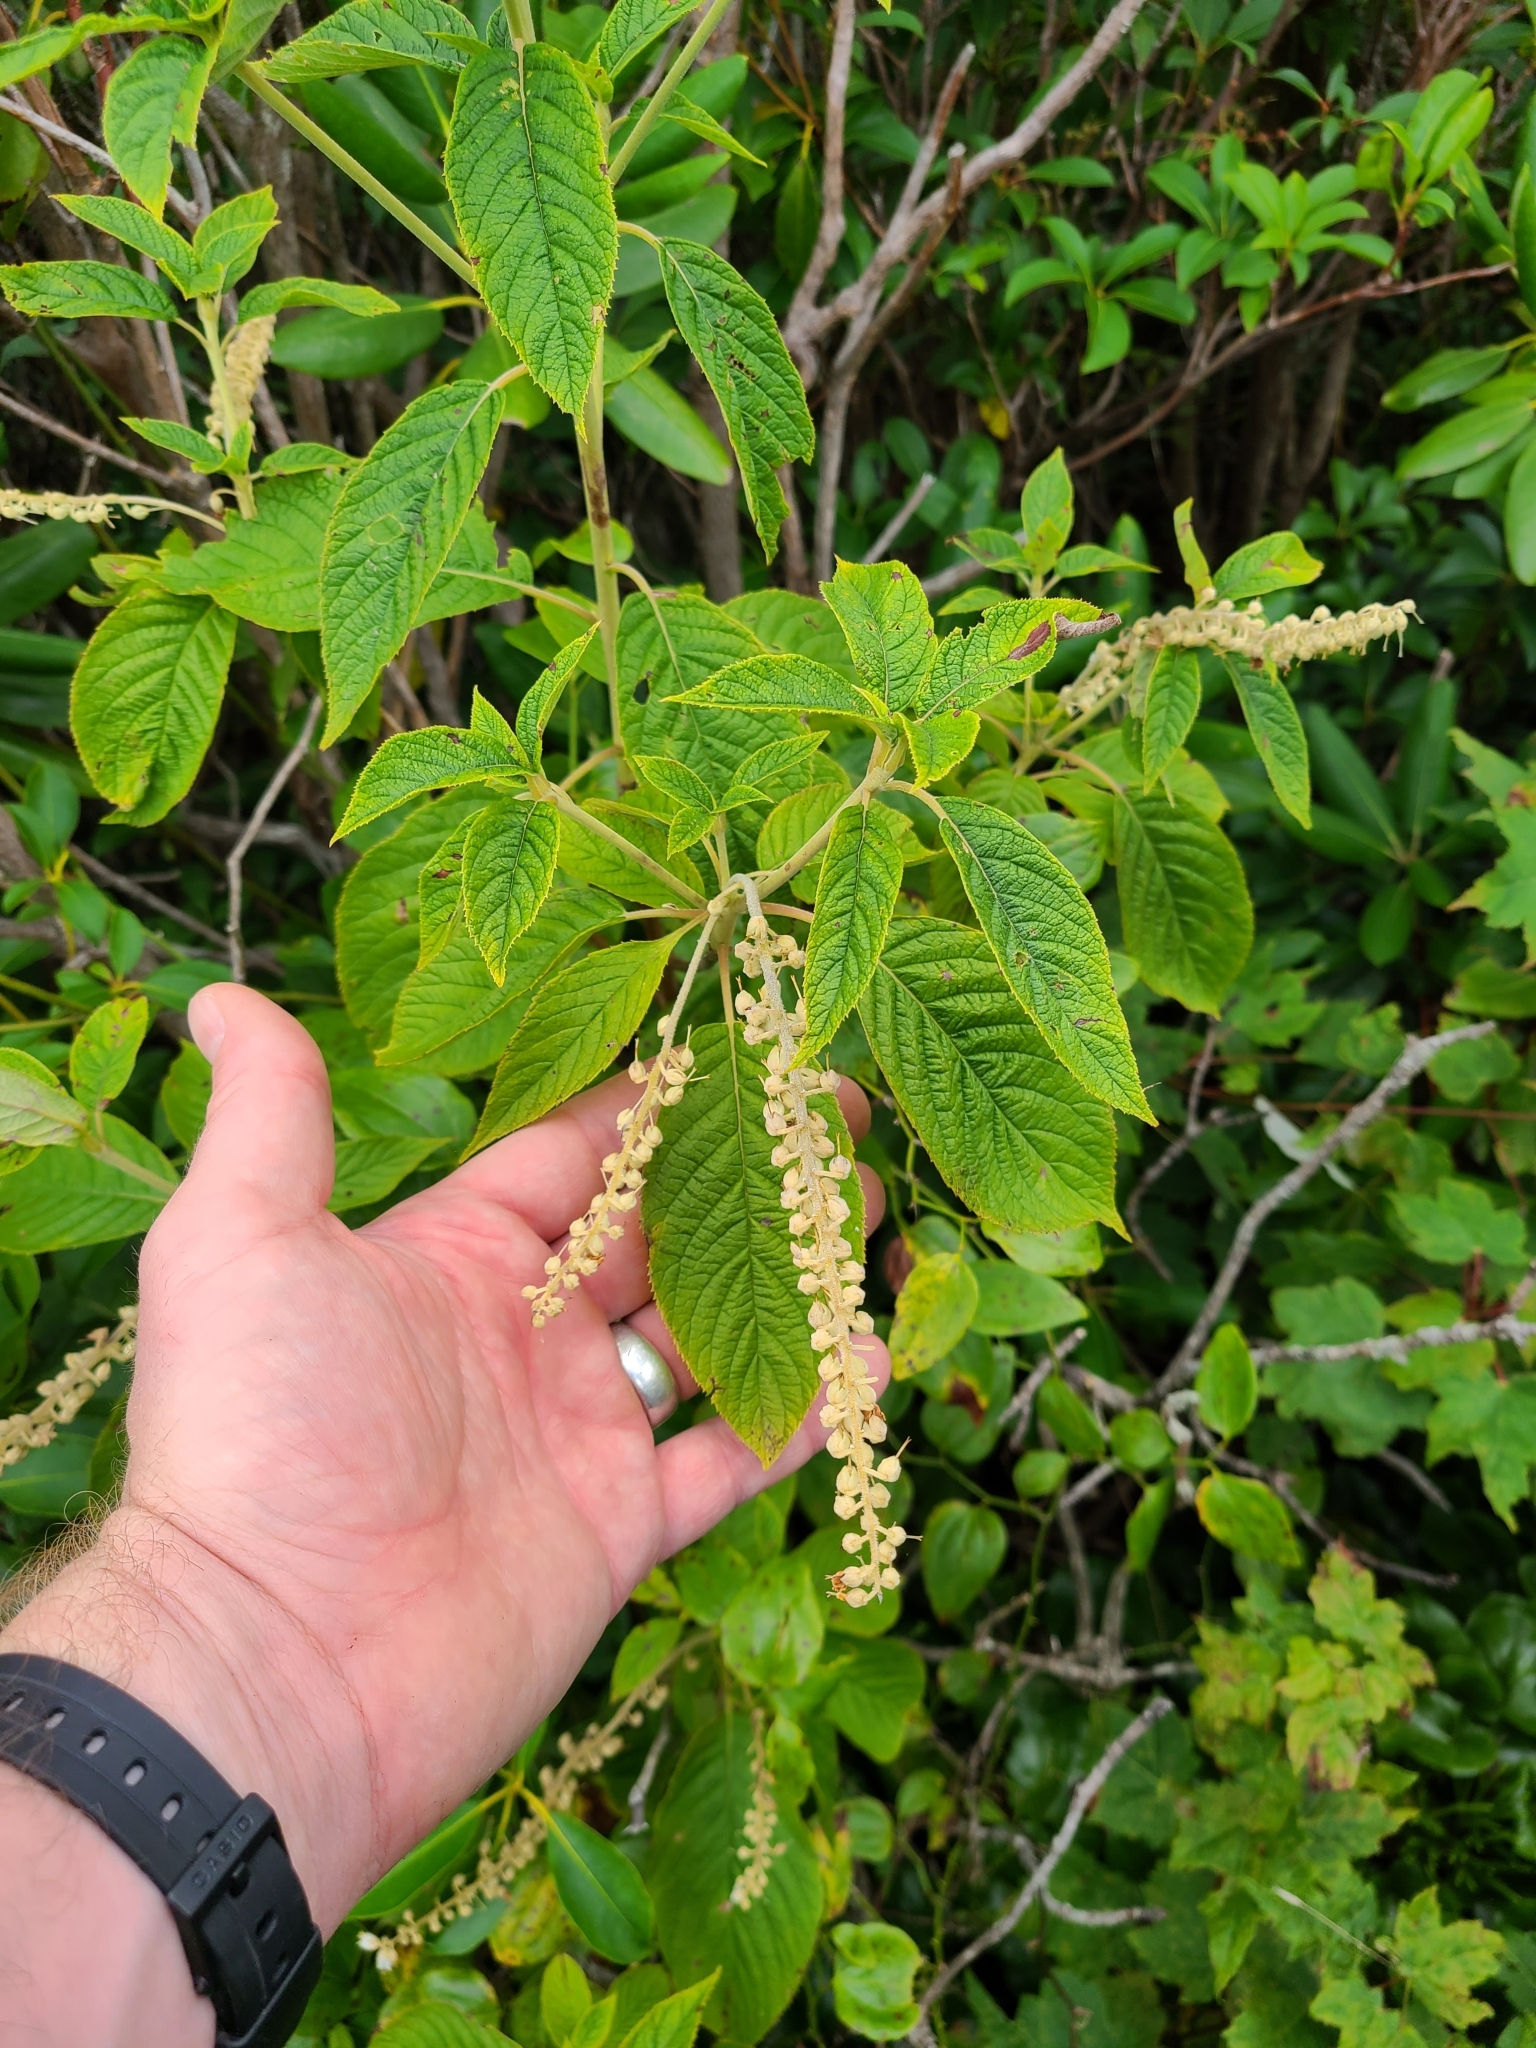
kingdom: Plantae
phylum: Tracheophyta
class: Magnoliopsida
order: Ericales
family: Clethraceae
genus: Clethra
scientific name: Clethra acuminata
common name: Mountain sweet pepperbush
